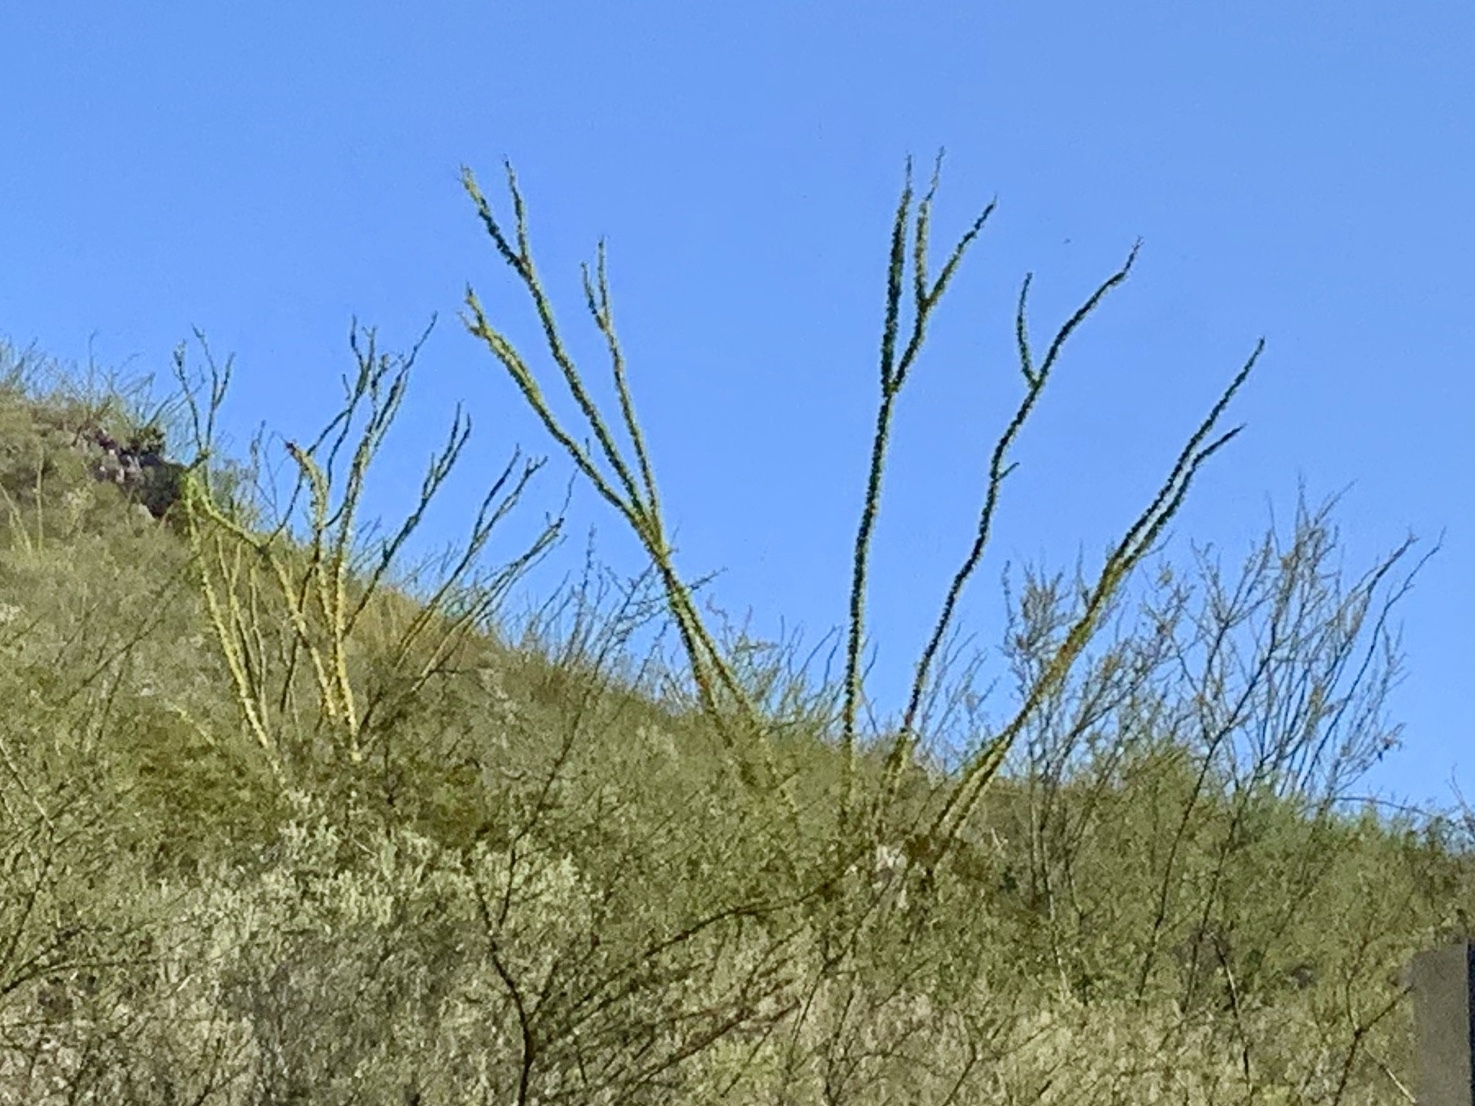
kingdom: Plantae
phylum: Tracheophyta
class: Magnoliopsida
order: Ericales
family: Fouquieriaceae
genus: Fouquieria
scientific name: Fouquieria splendens
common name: Vine-cactus
